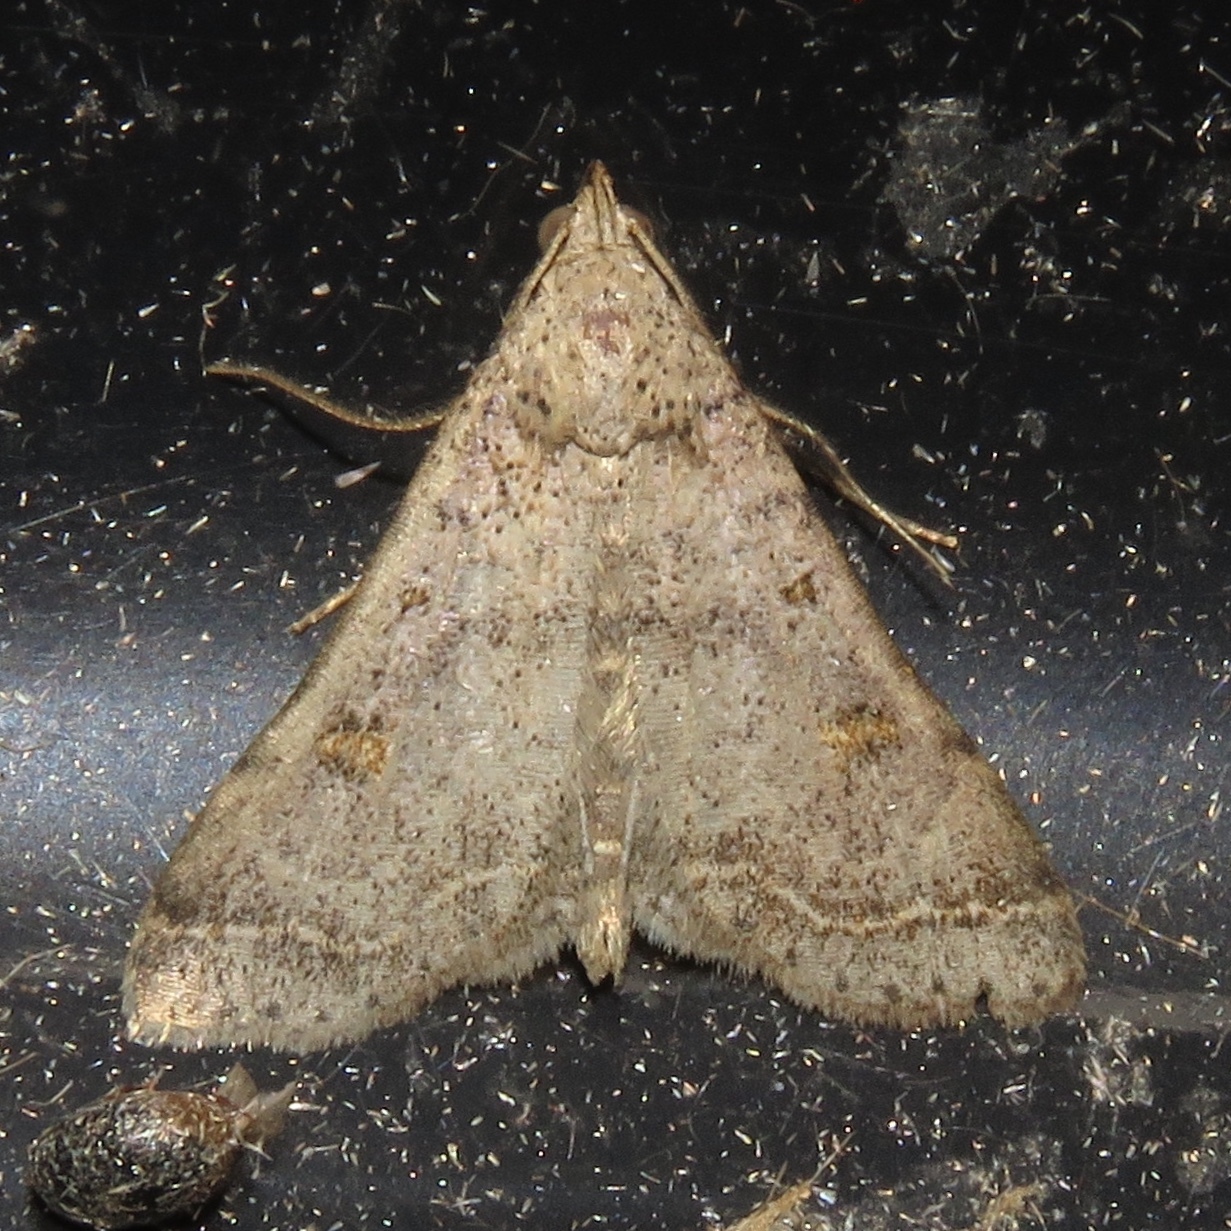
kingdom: Animalia
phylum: Arthropoda
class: Insecta
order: Lepidoptera
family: Erebidae
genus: Bleptina
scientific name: Bleptina caradrinalis
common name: Bent-winged owlet
